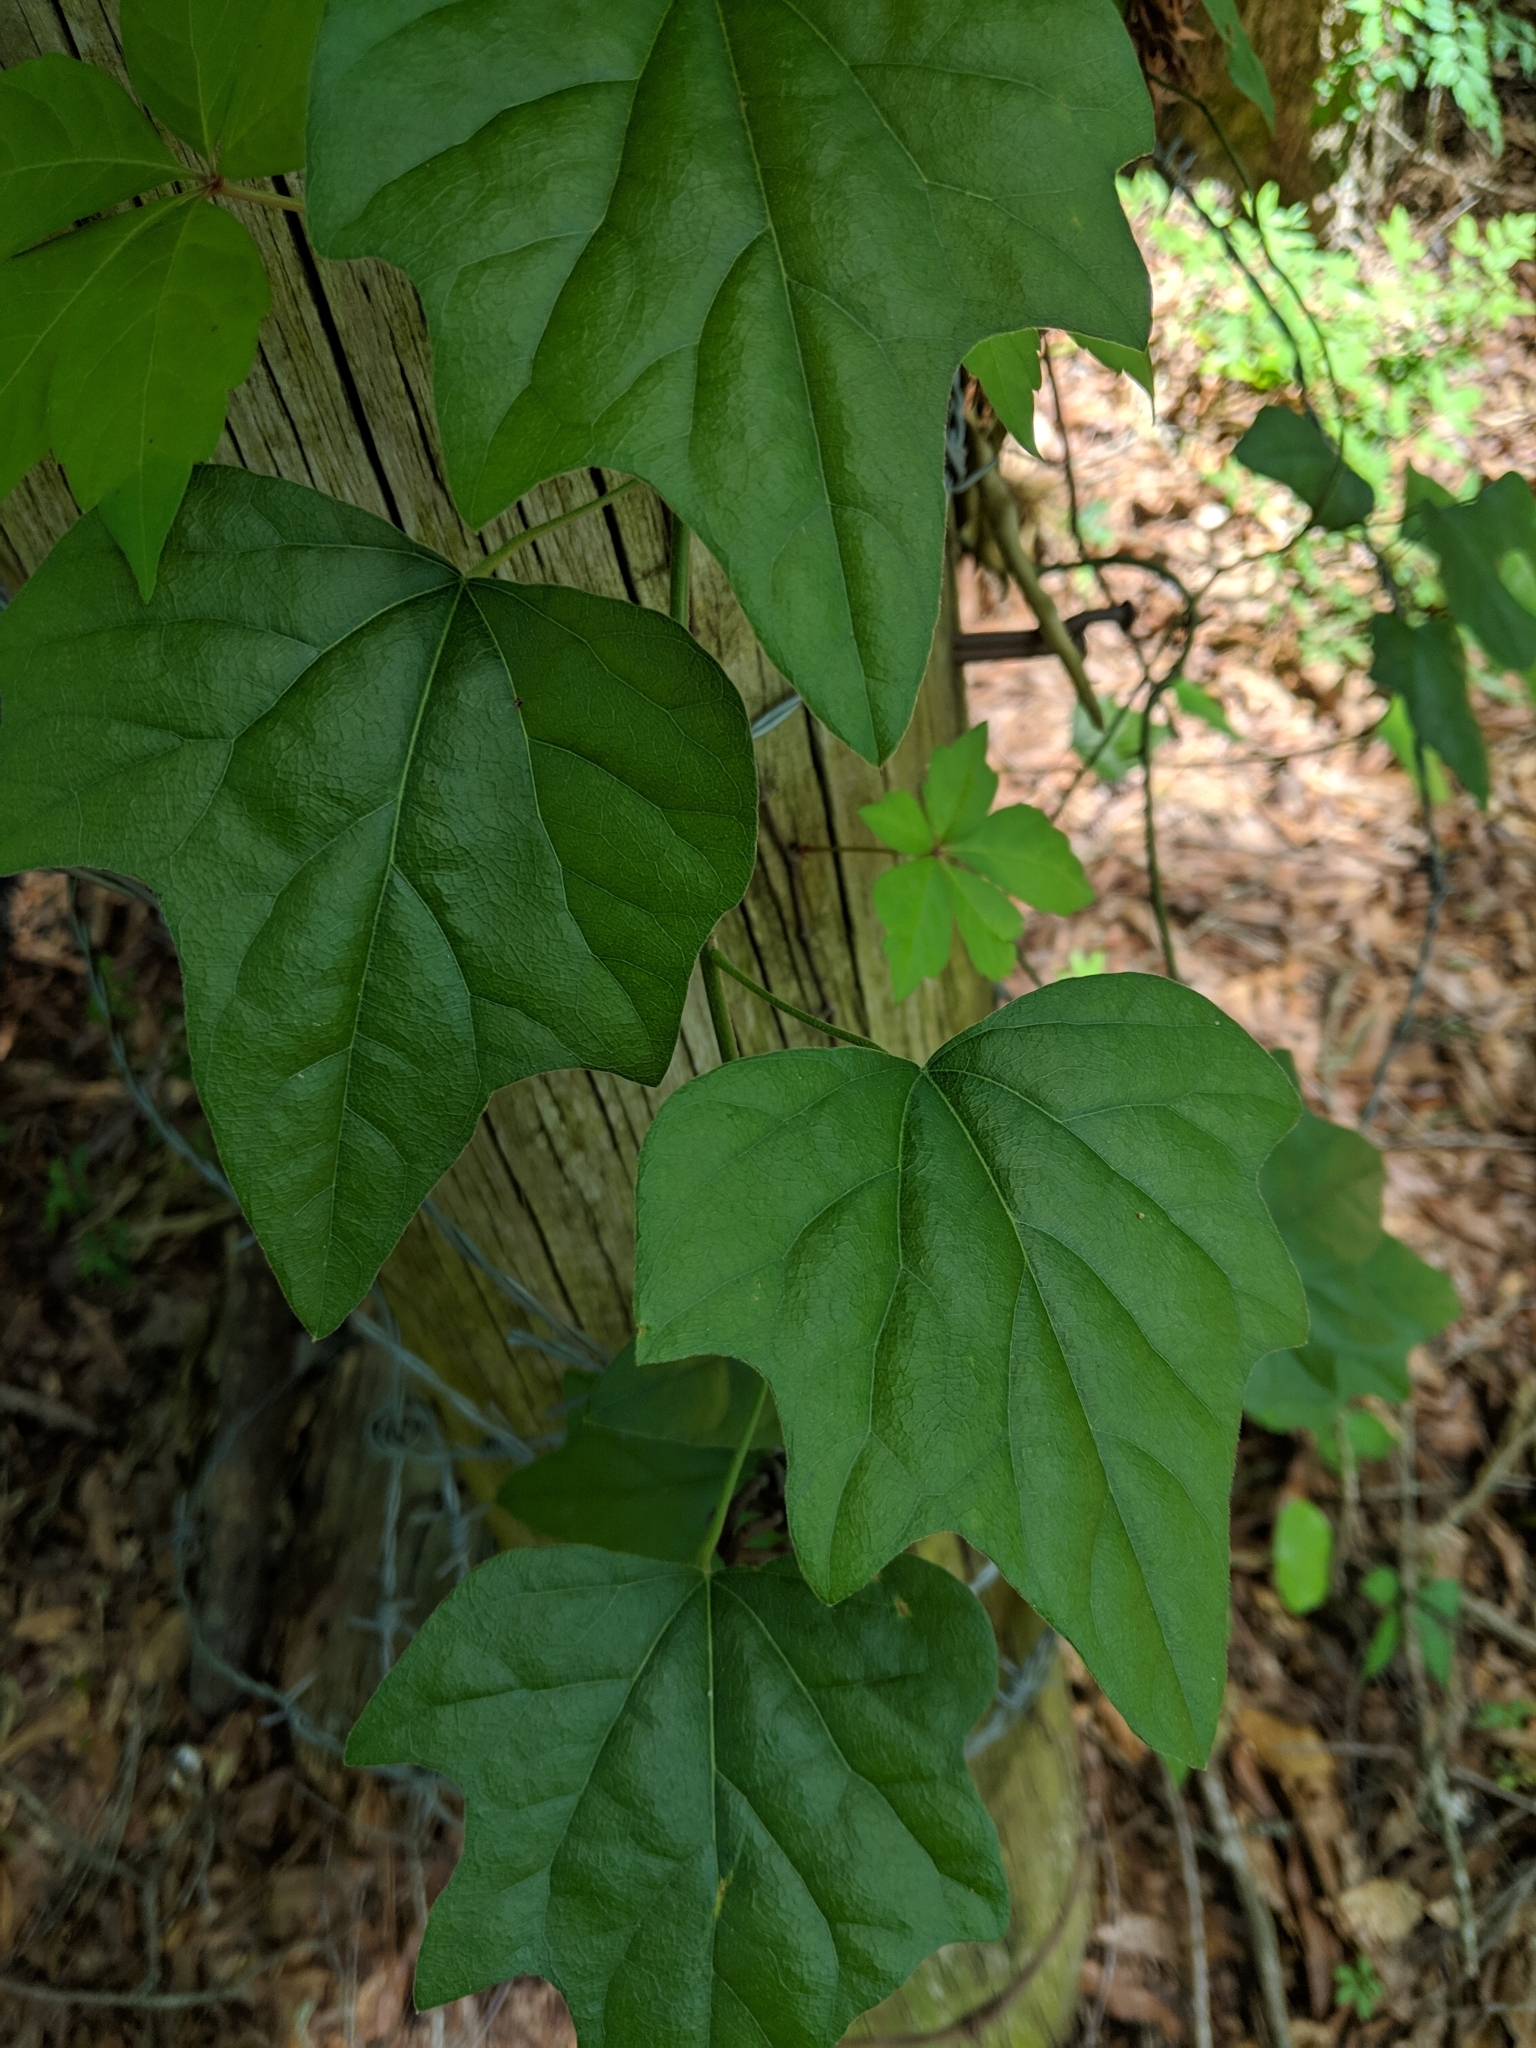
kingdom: Plantae
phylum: Tracheophyta
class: Magnoliopsida
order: Ranunculales
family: Menispermaceae
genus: Cocculus
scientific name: Cocculus carolinus
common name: Carolina moonseed
